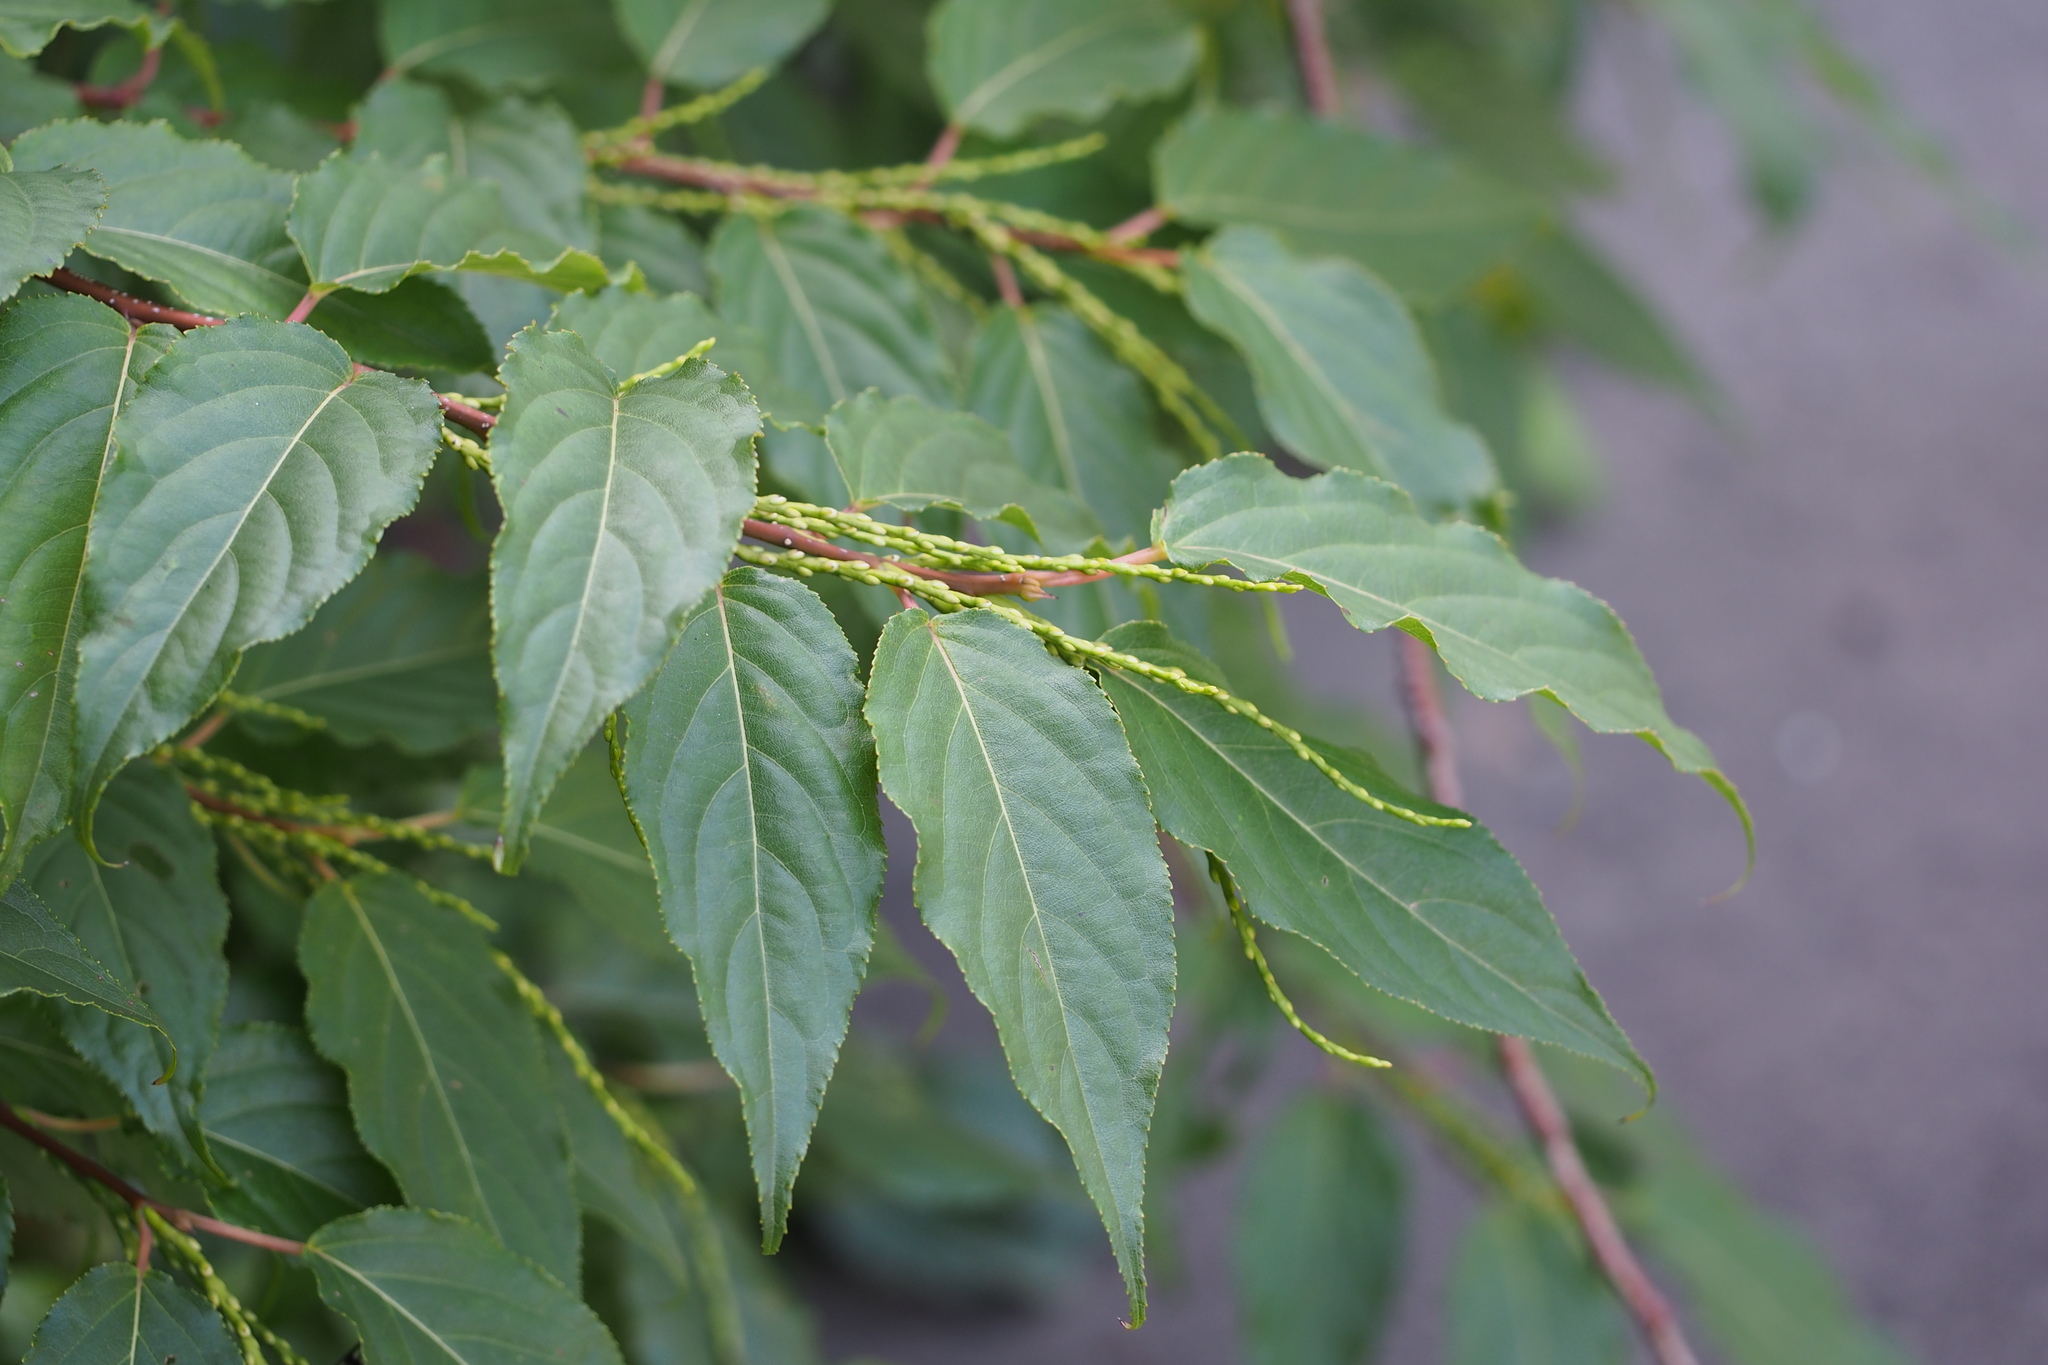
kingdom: Plantae
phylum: Tracheophyta
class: Magnoliopsida
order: Crossosomatales
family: Stachyuraceae
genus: Stachyurus
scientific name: Stachyurus praecox
